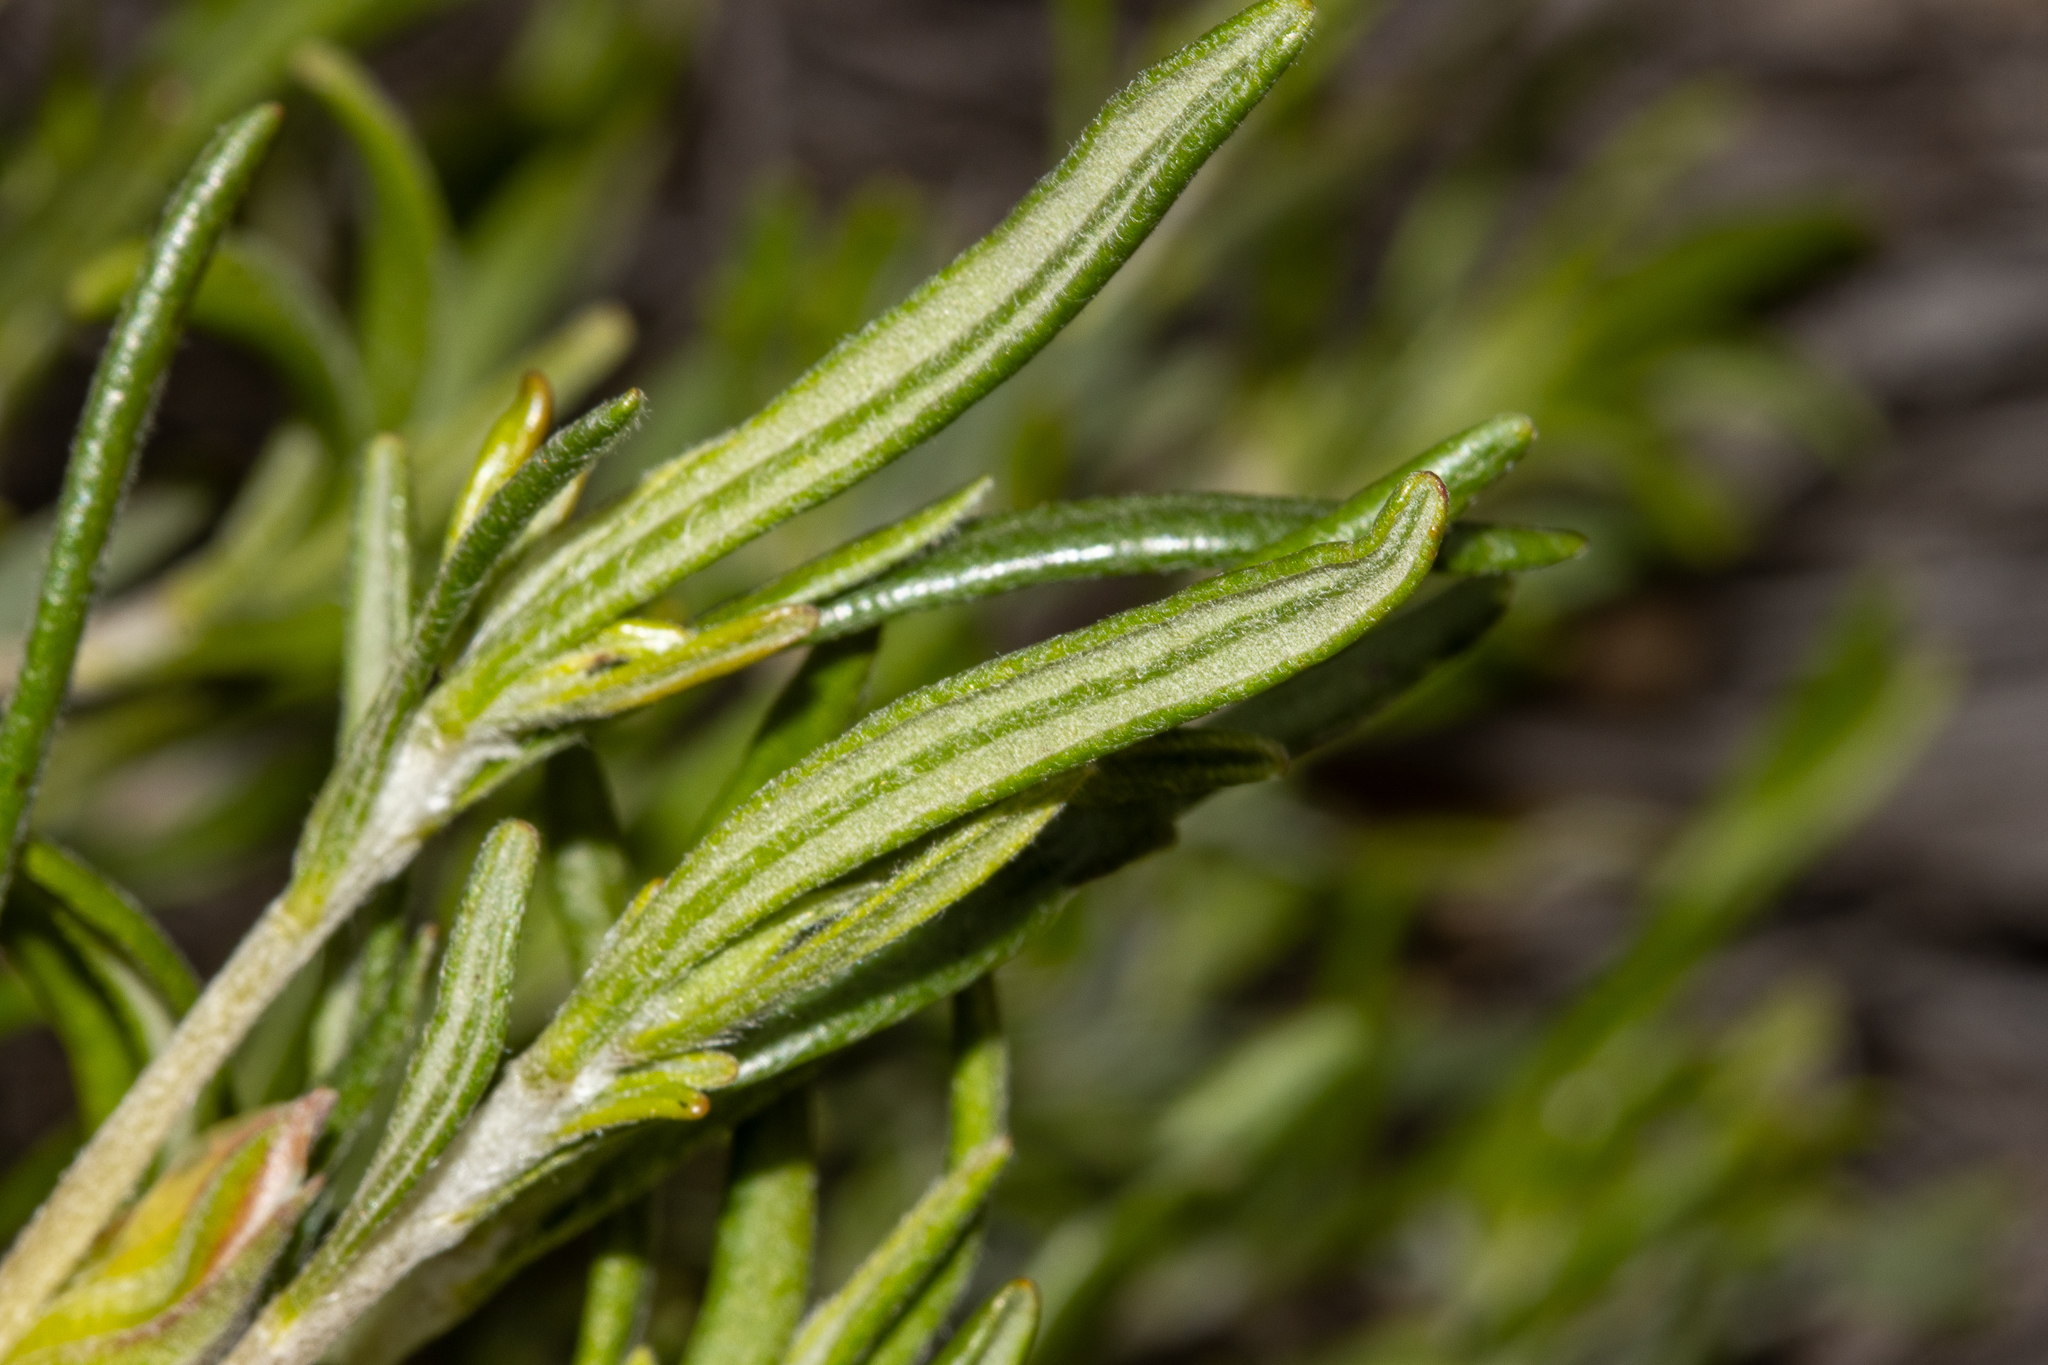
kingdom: Plantae
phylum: Tracheophyta
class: Magnoliopsida
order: Dilleniales
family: Dilleniaceae
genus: Hibbertia
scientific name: Hibbertia pubens
